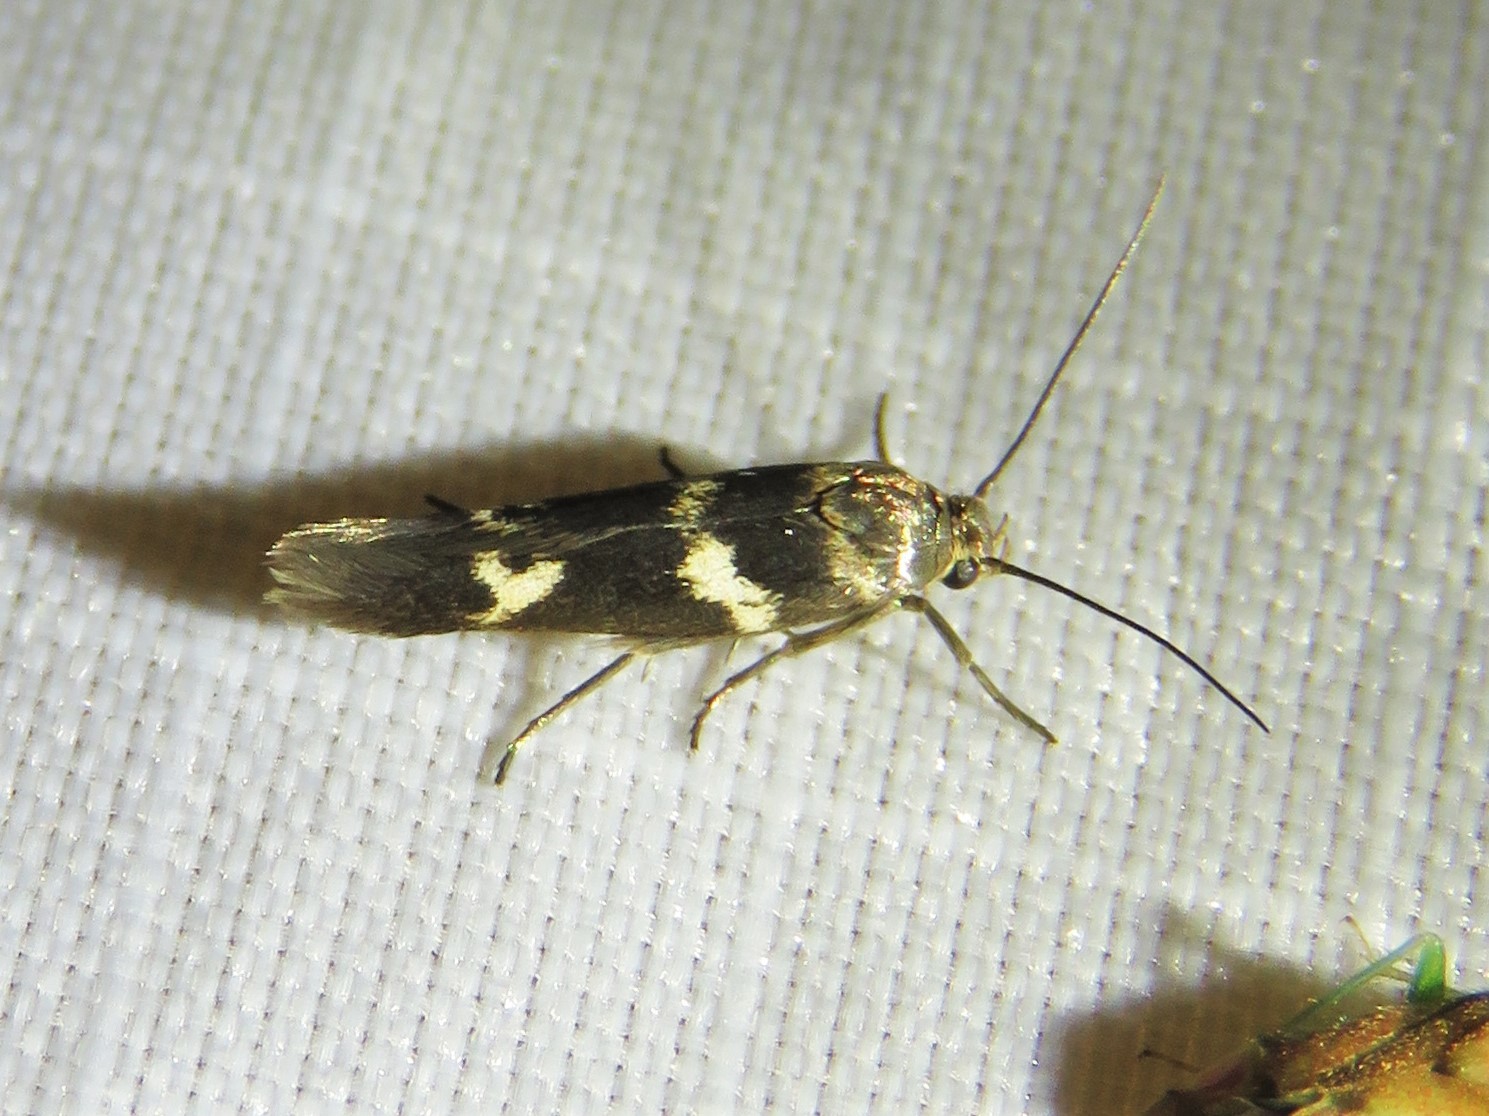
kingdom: Animalia
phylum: Arthropoda
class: Insecta
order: Lepidoptera
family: Scythrididae
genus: Scythris
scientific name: Scythris trivinctella
